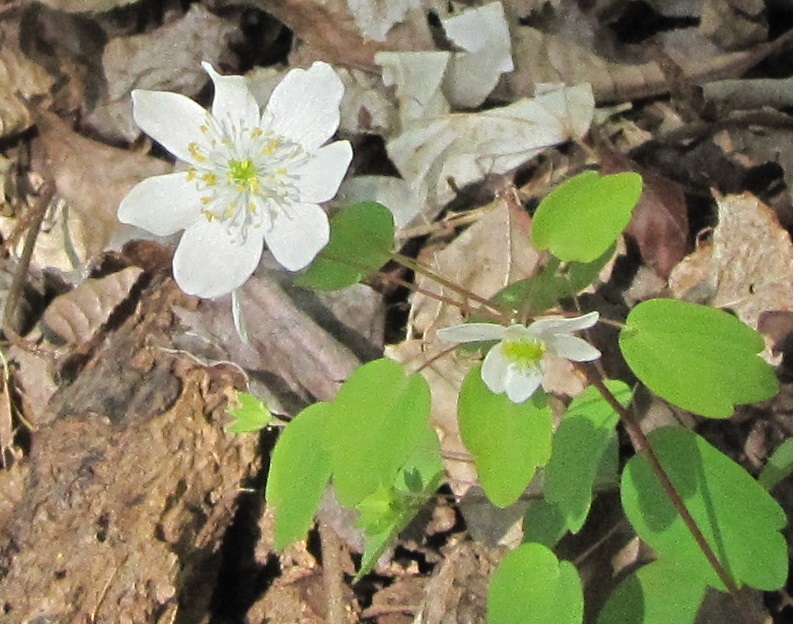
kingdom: Plantae
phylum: Tracheophyta
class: Magnoliopsida
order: Ranunculales
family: Ranunculaceae
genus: Thalictrum
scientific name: Thalictrum thalictroides
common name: Rue-anemone
